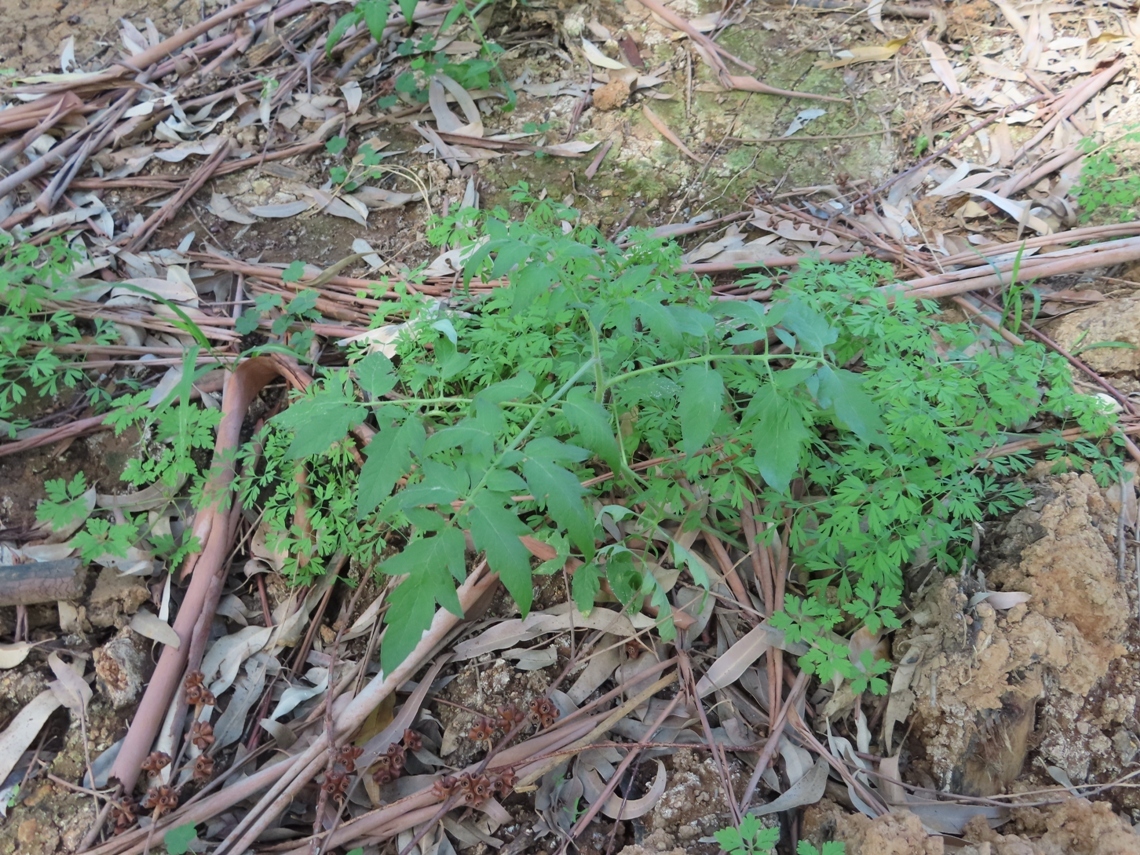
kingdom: Plantae
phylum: Tracheophyta
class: Magnoliopsida
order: Solanales
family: Solanaceae
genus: Solanum
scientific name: Solanum lycopersicum
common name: Garden tomato
